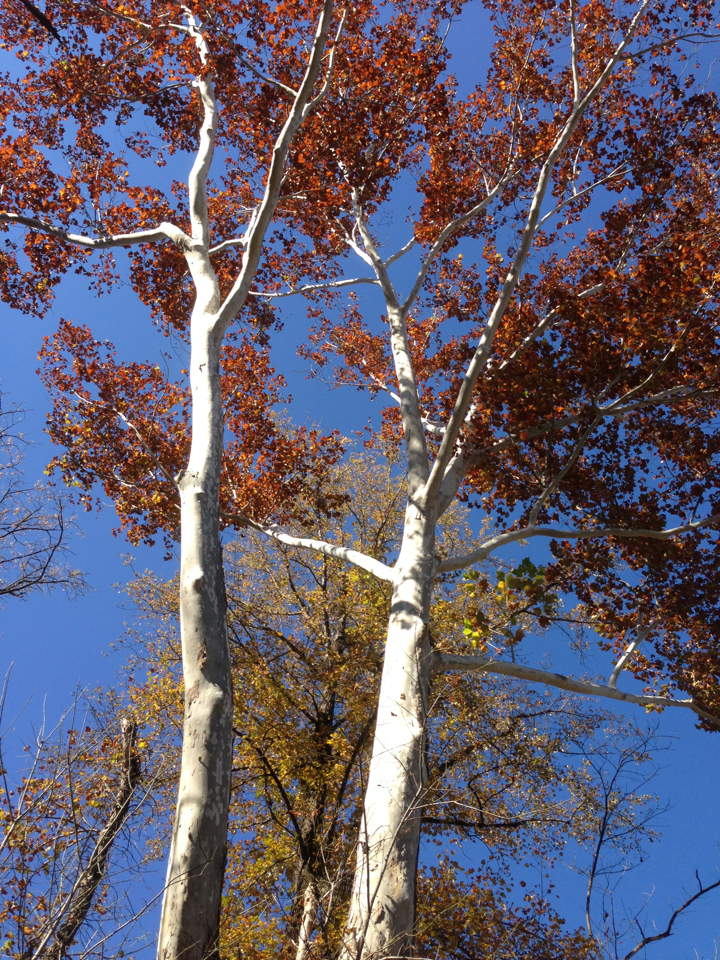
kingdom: Plantae
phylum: Tracheophyta
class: Magnoliopsida
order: Proteales
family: Platanaceae
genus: Platanus
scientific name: Platanus occidentalis
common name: American sycamore
